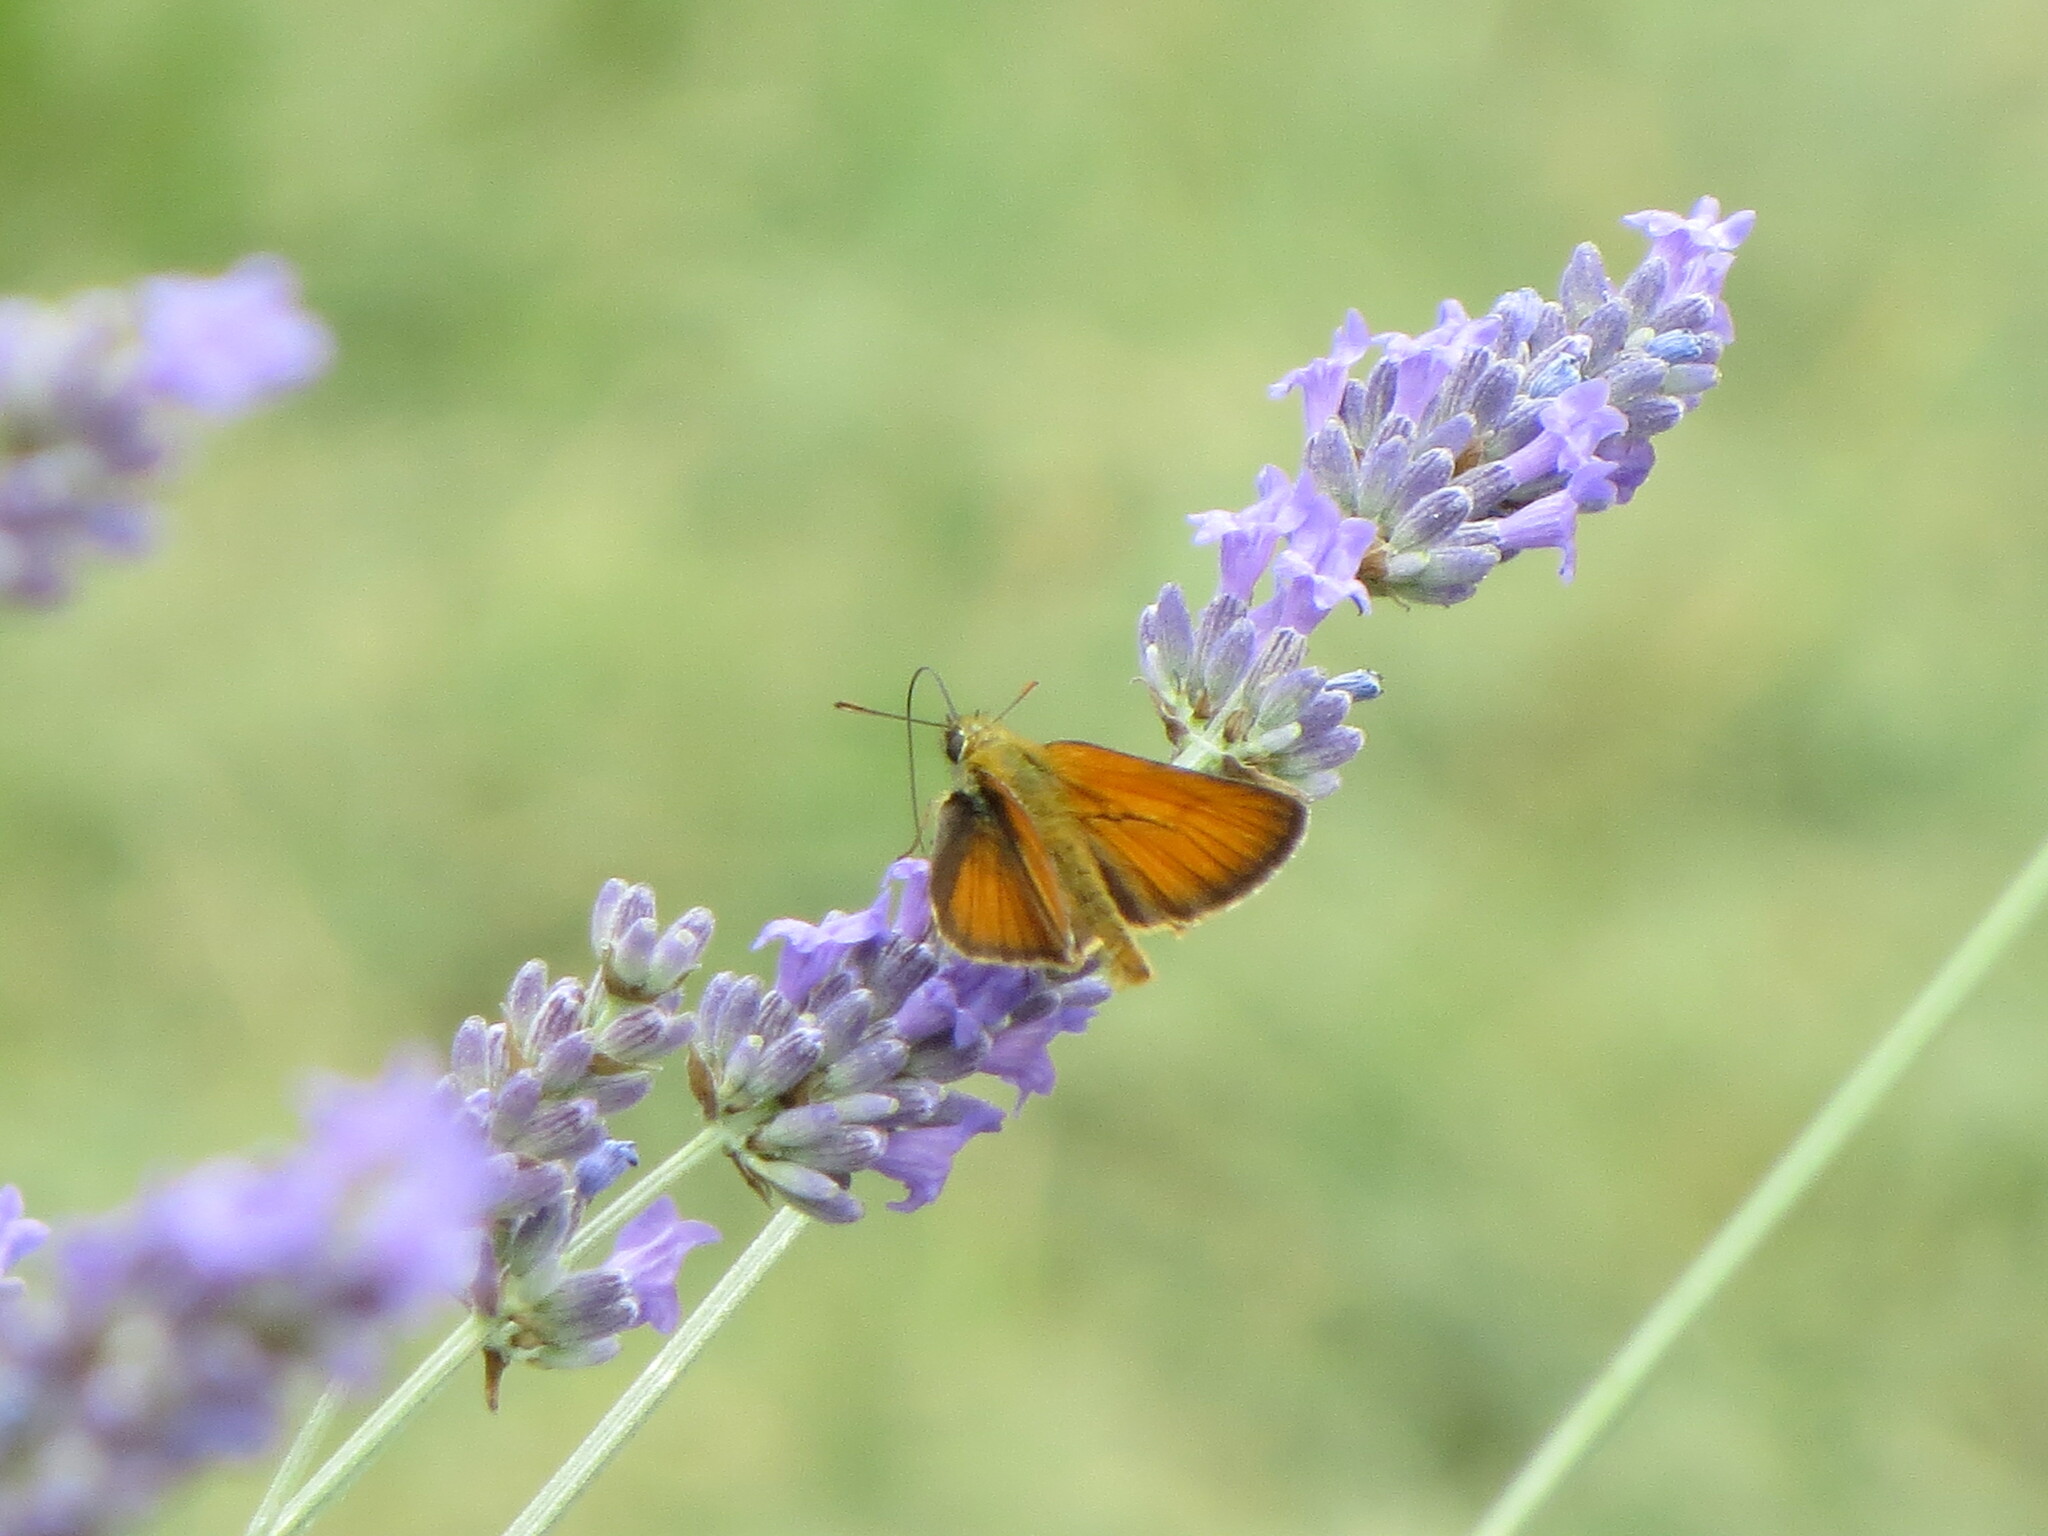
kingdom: Animalia
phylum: Arthropoda
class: Insecta
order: Lepidoptera
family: Hesperiidae
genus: Thymelicus
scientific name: Thymelicus sylvestris
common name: Small skipper
